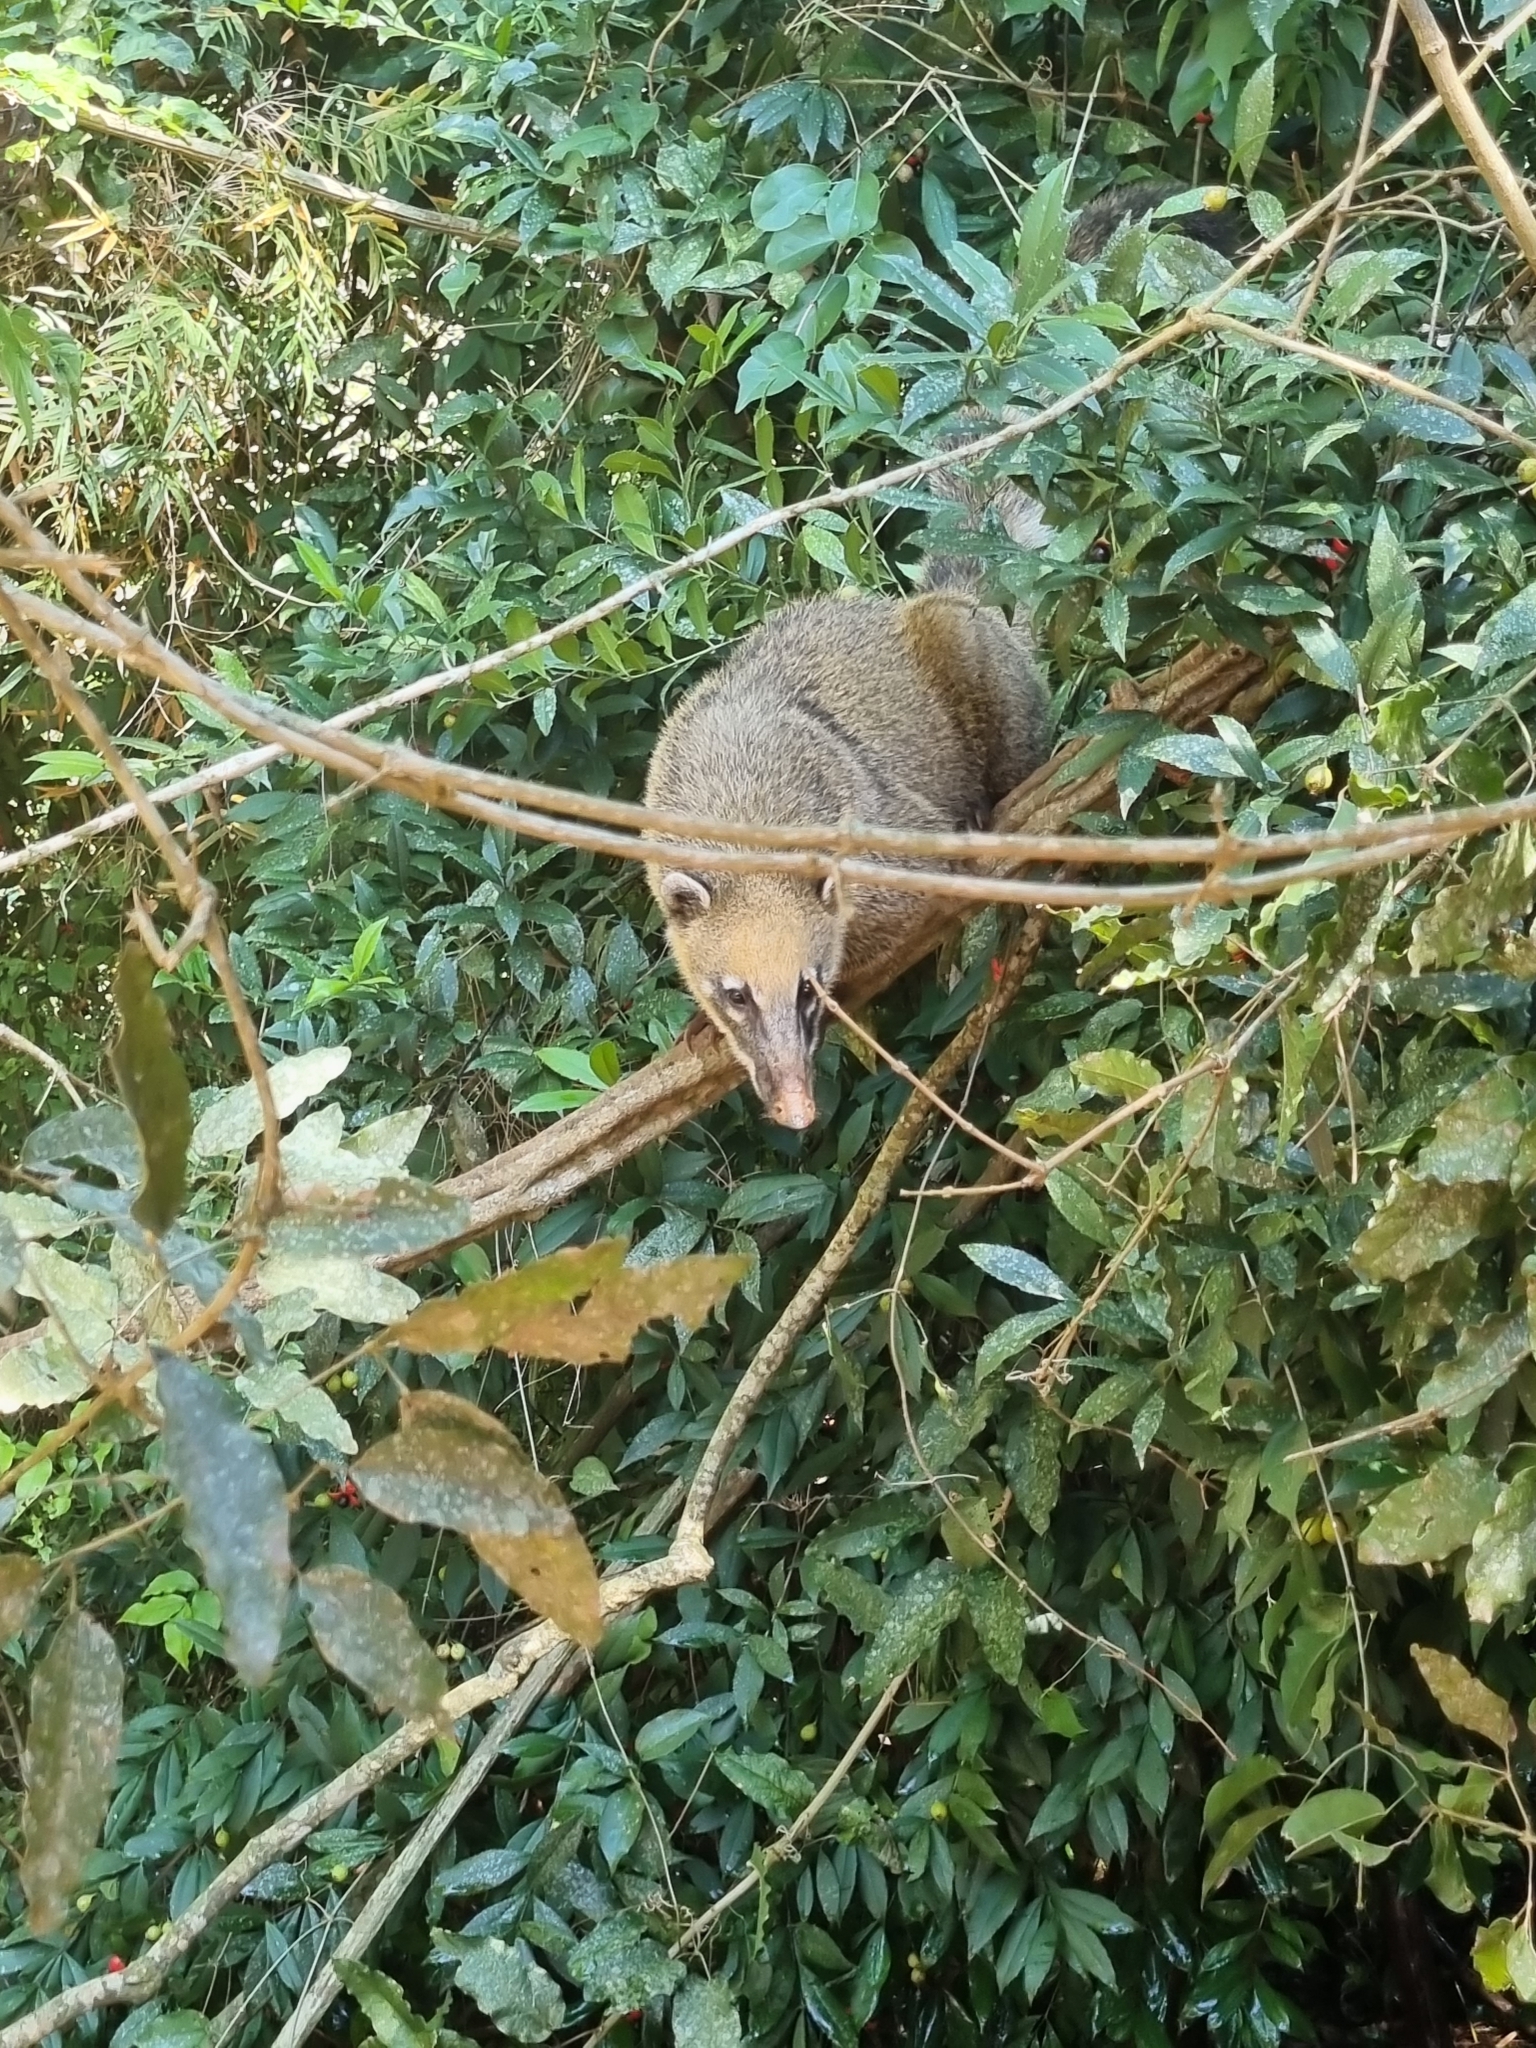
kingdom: Animalia
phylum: Chordata
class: Mammalia
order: Carnivora
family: Procyonidae
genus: Nasua
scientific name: Nasua nasua
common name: South american coati
